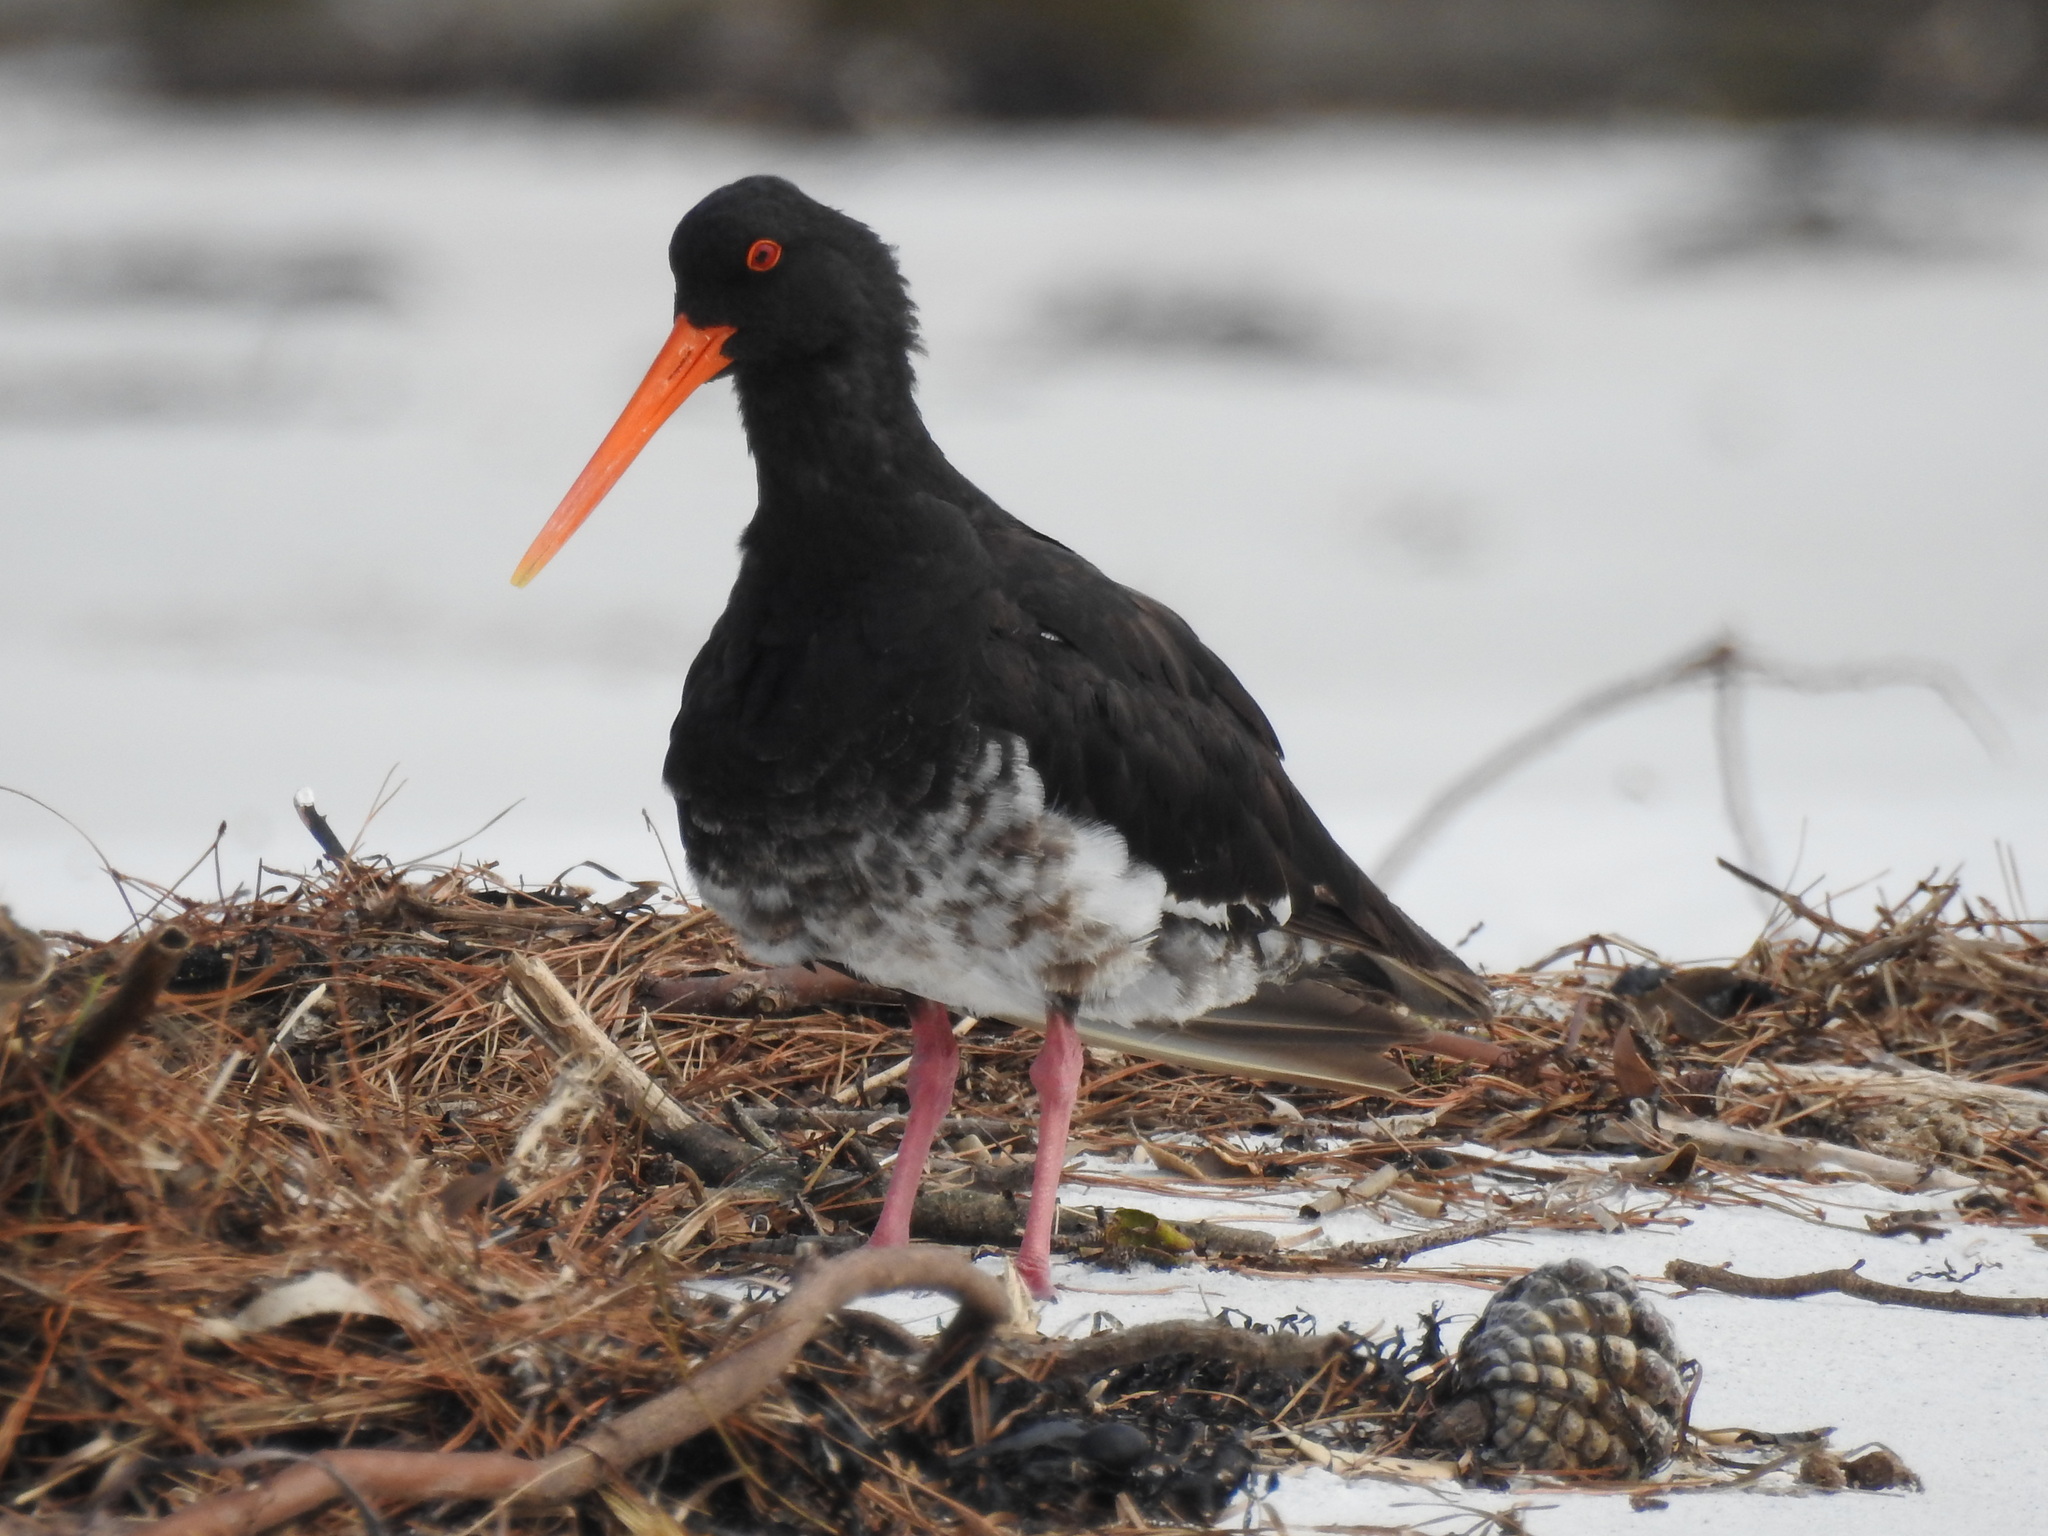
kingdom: Animalia
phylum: Chordata
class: Aves
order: Charadriiformes
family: Haematopodidae
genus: Haematopus
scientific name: Haematopus unicolor
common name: Variable oystercatcher
